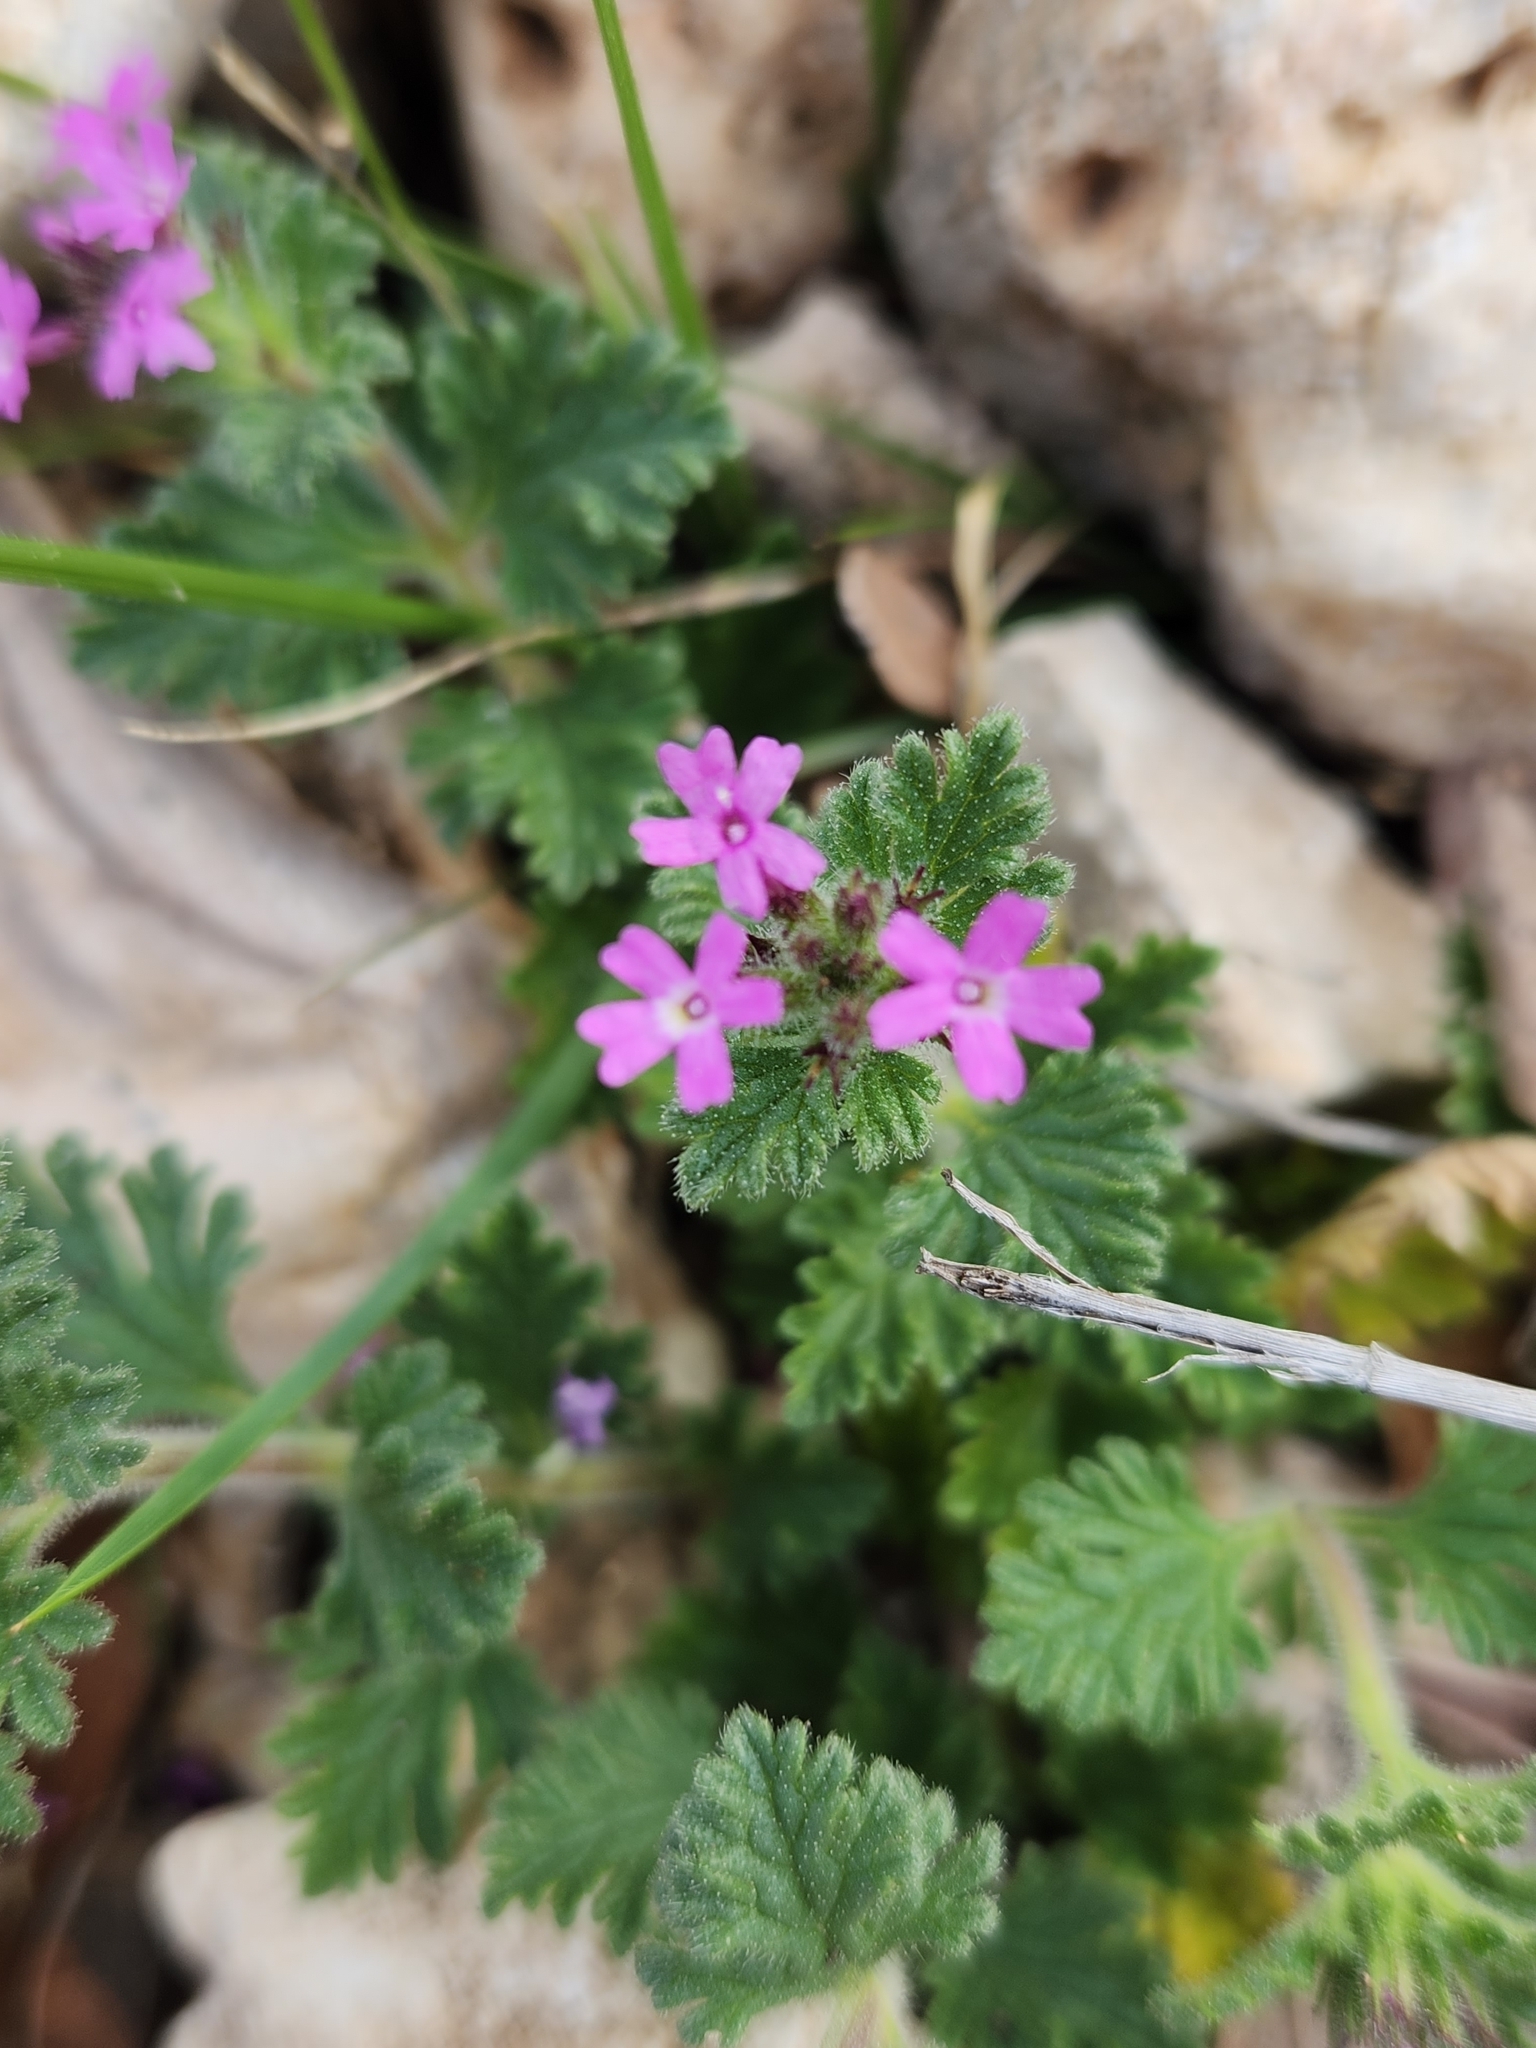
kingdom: Plantae
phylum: Tracheophyta
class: Magnoliopsida
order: Lamiales
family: Verbenaceae
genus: Verbena
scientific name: Verbena pumila
